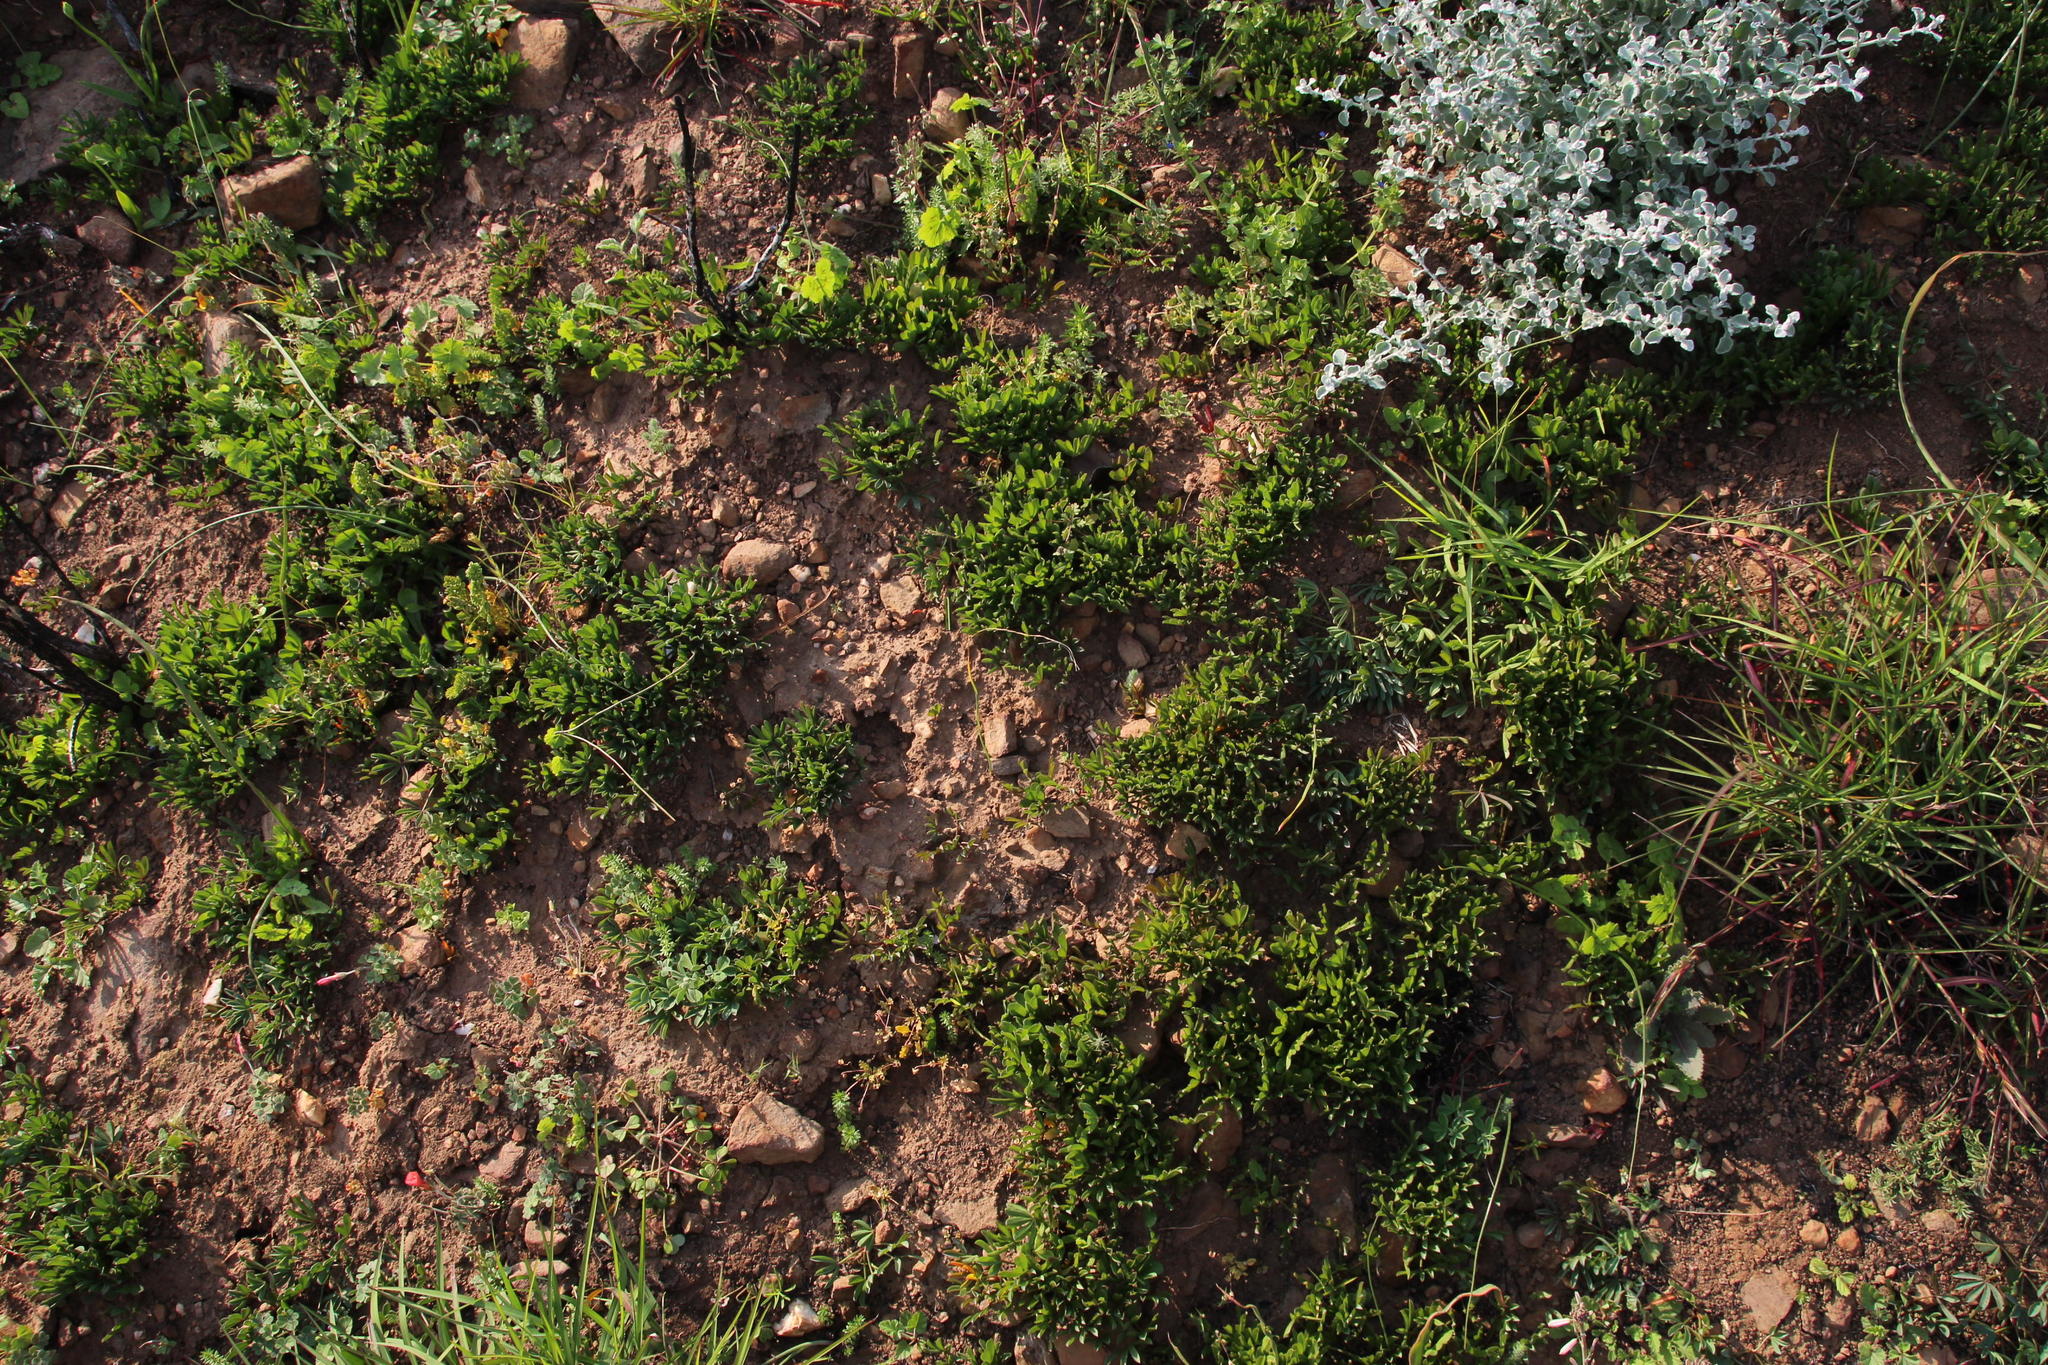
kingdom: Plantae
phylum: Tracheophyta
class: Magnoliopsida
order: Oxalidales
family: Oxalidaceae
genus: Oxalis
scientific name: Oxalis flava
